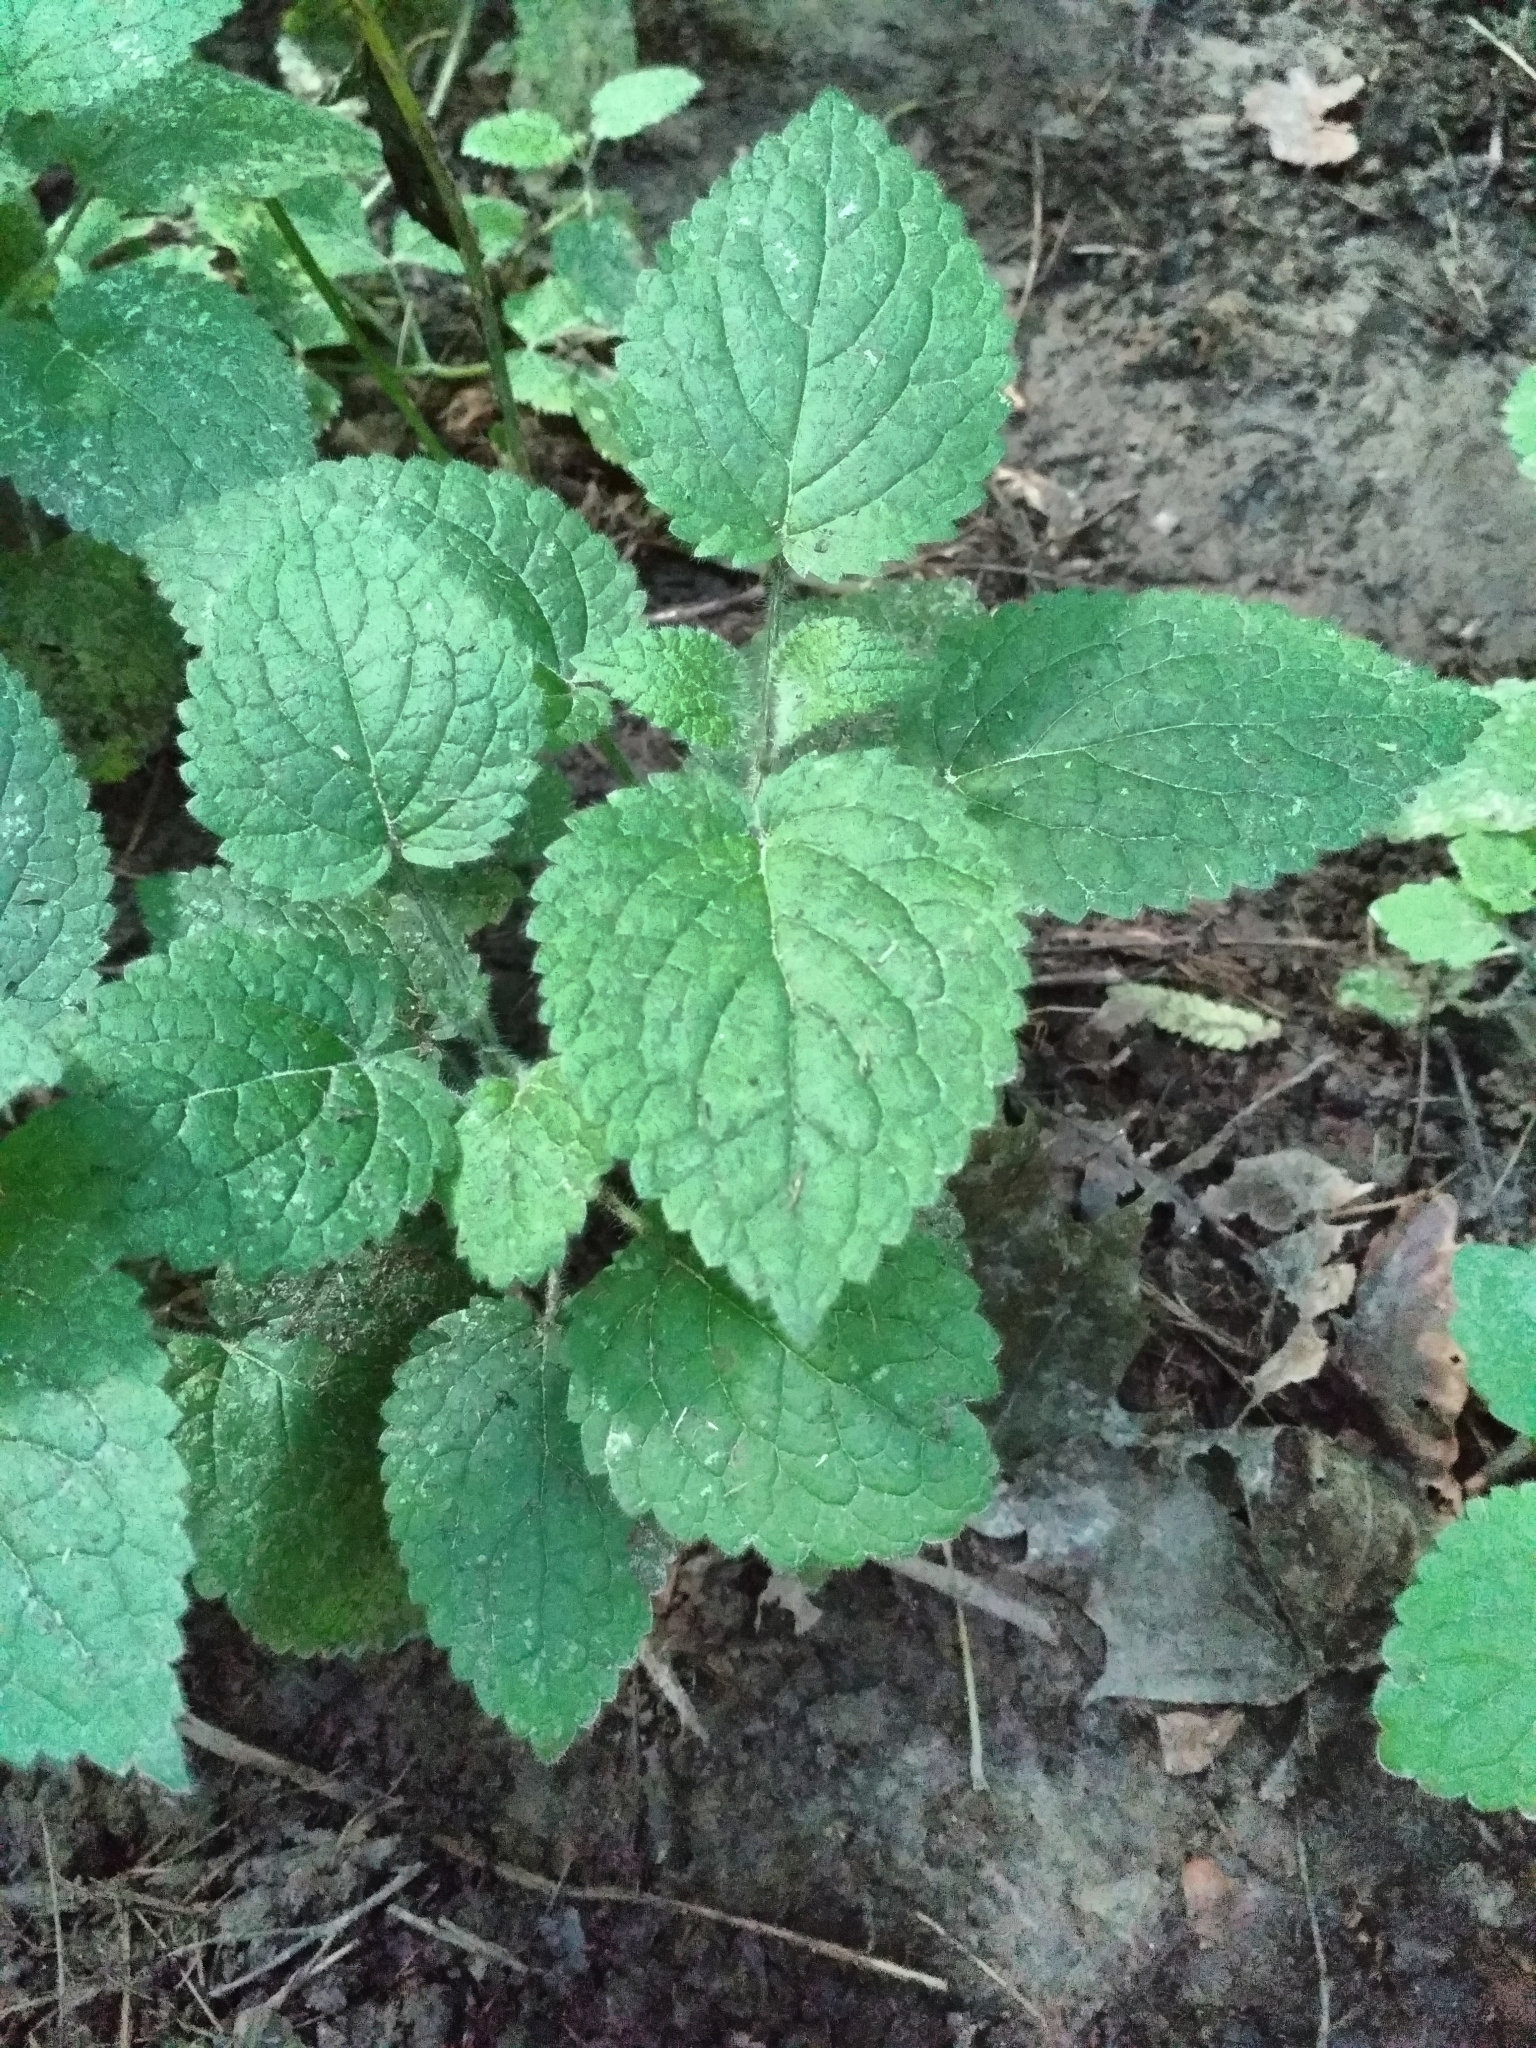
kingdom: Plantae
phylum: Tracheophyta
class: Magnoliopsida
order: Lamiales
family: Lamiaceae
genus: Stachys
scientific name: Stachys sylvatica
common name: Hedge woundwort
